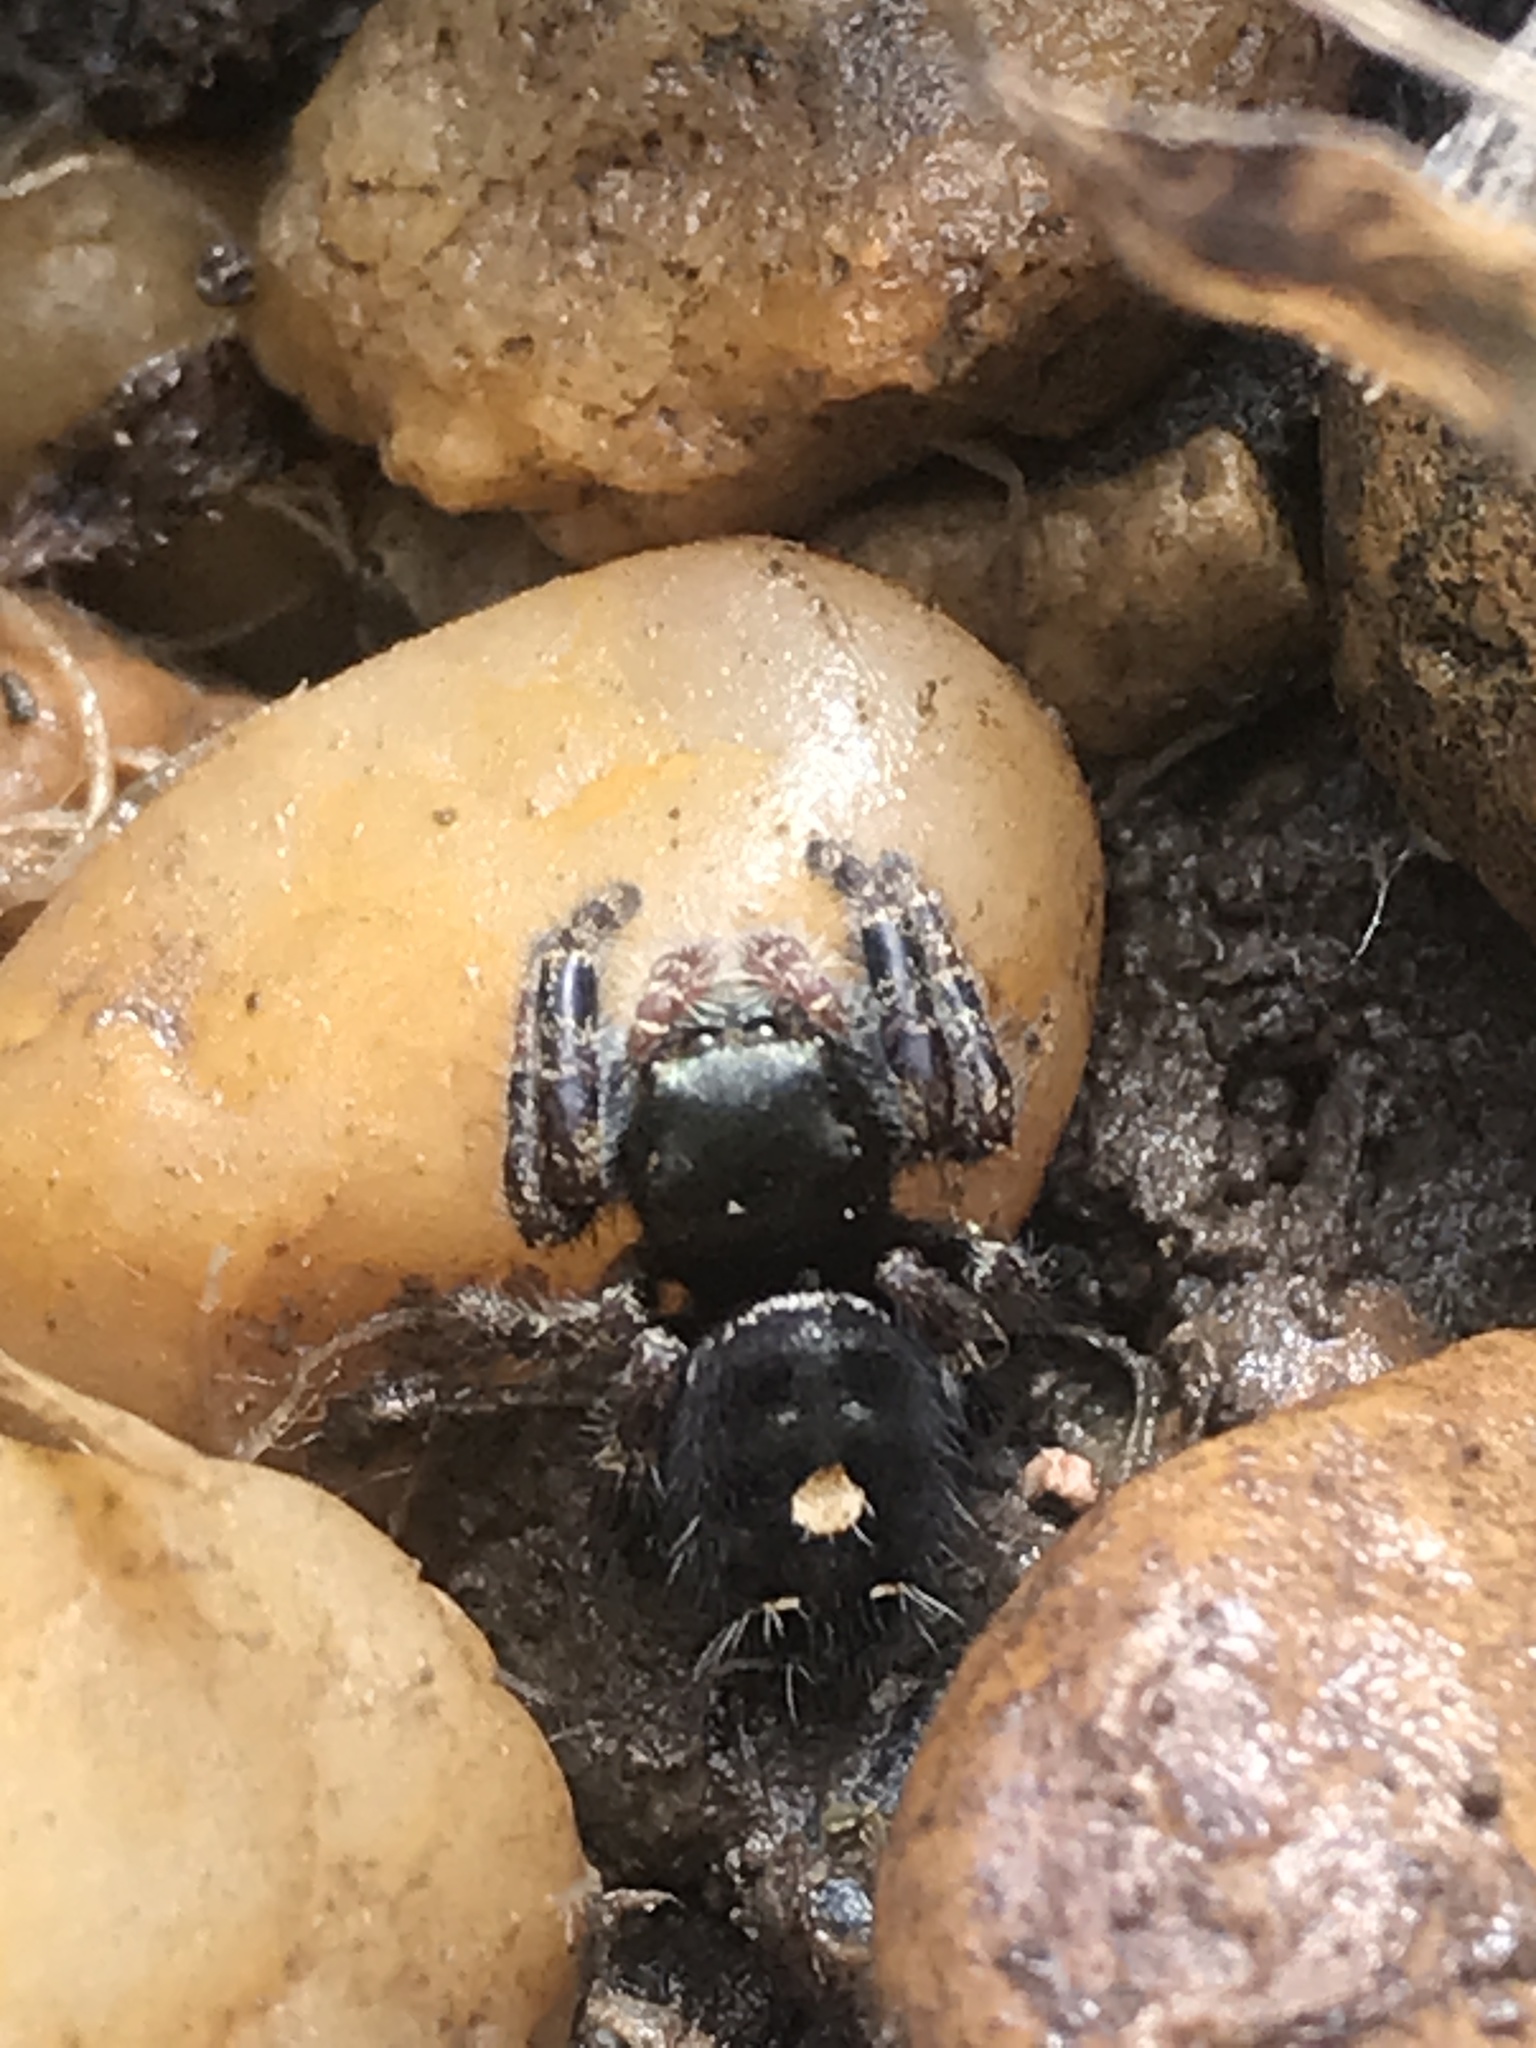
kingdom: Animalia
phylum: Arthropoda
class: Arachnida
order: Araneae
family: Salticidae
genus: Phidippus
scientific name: Phidippus audax
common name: Bold jumper
